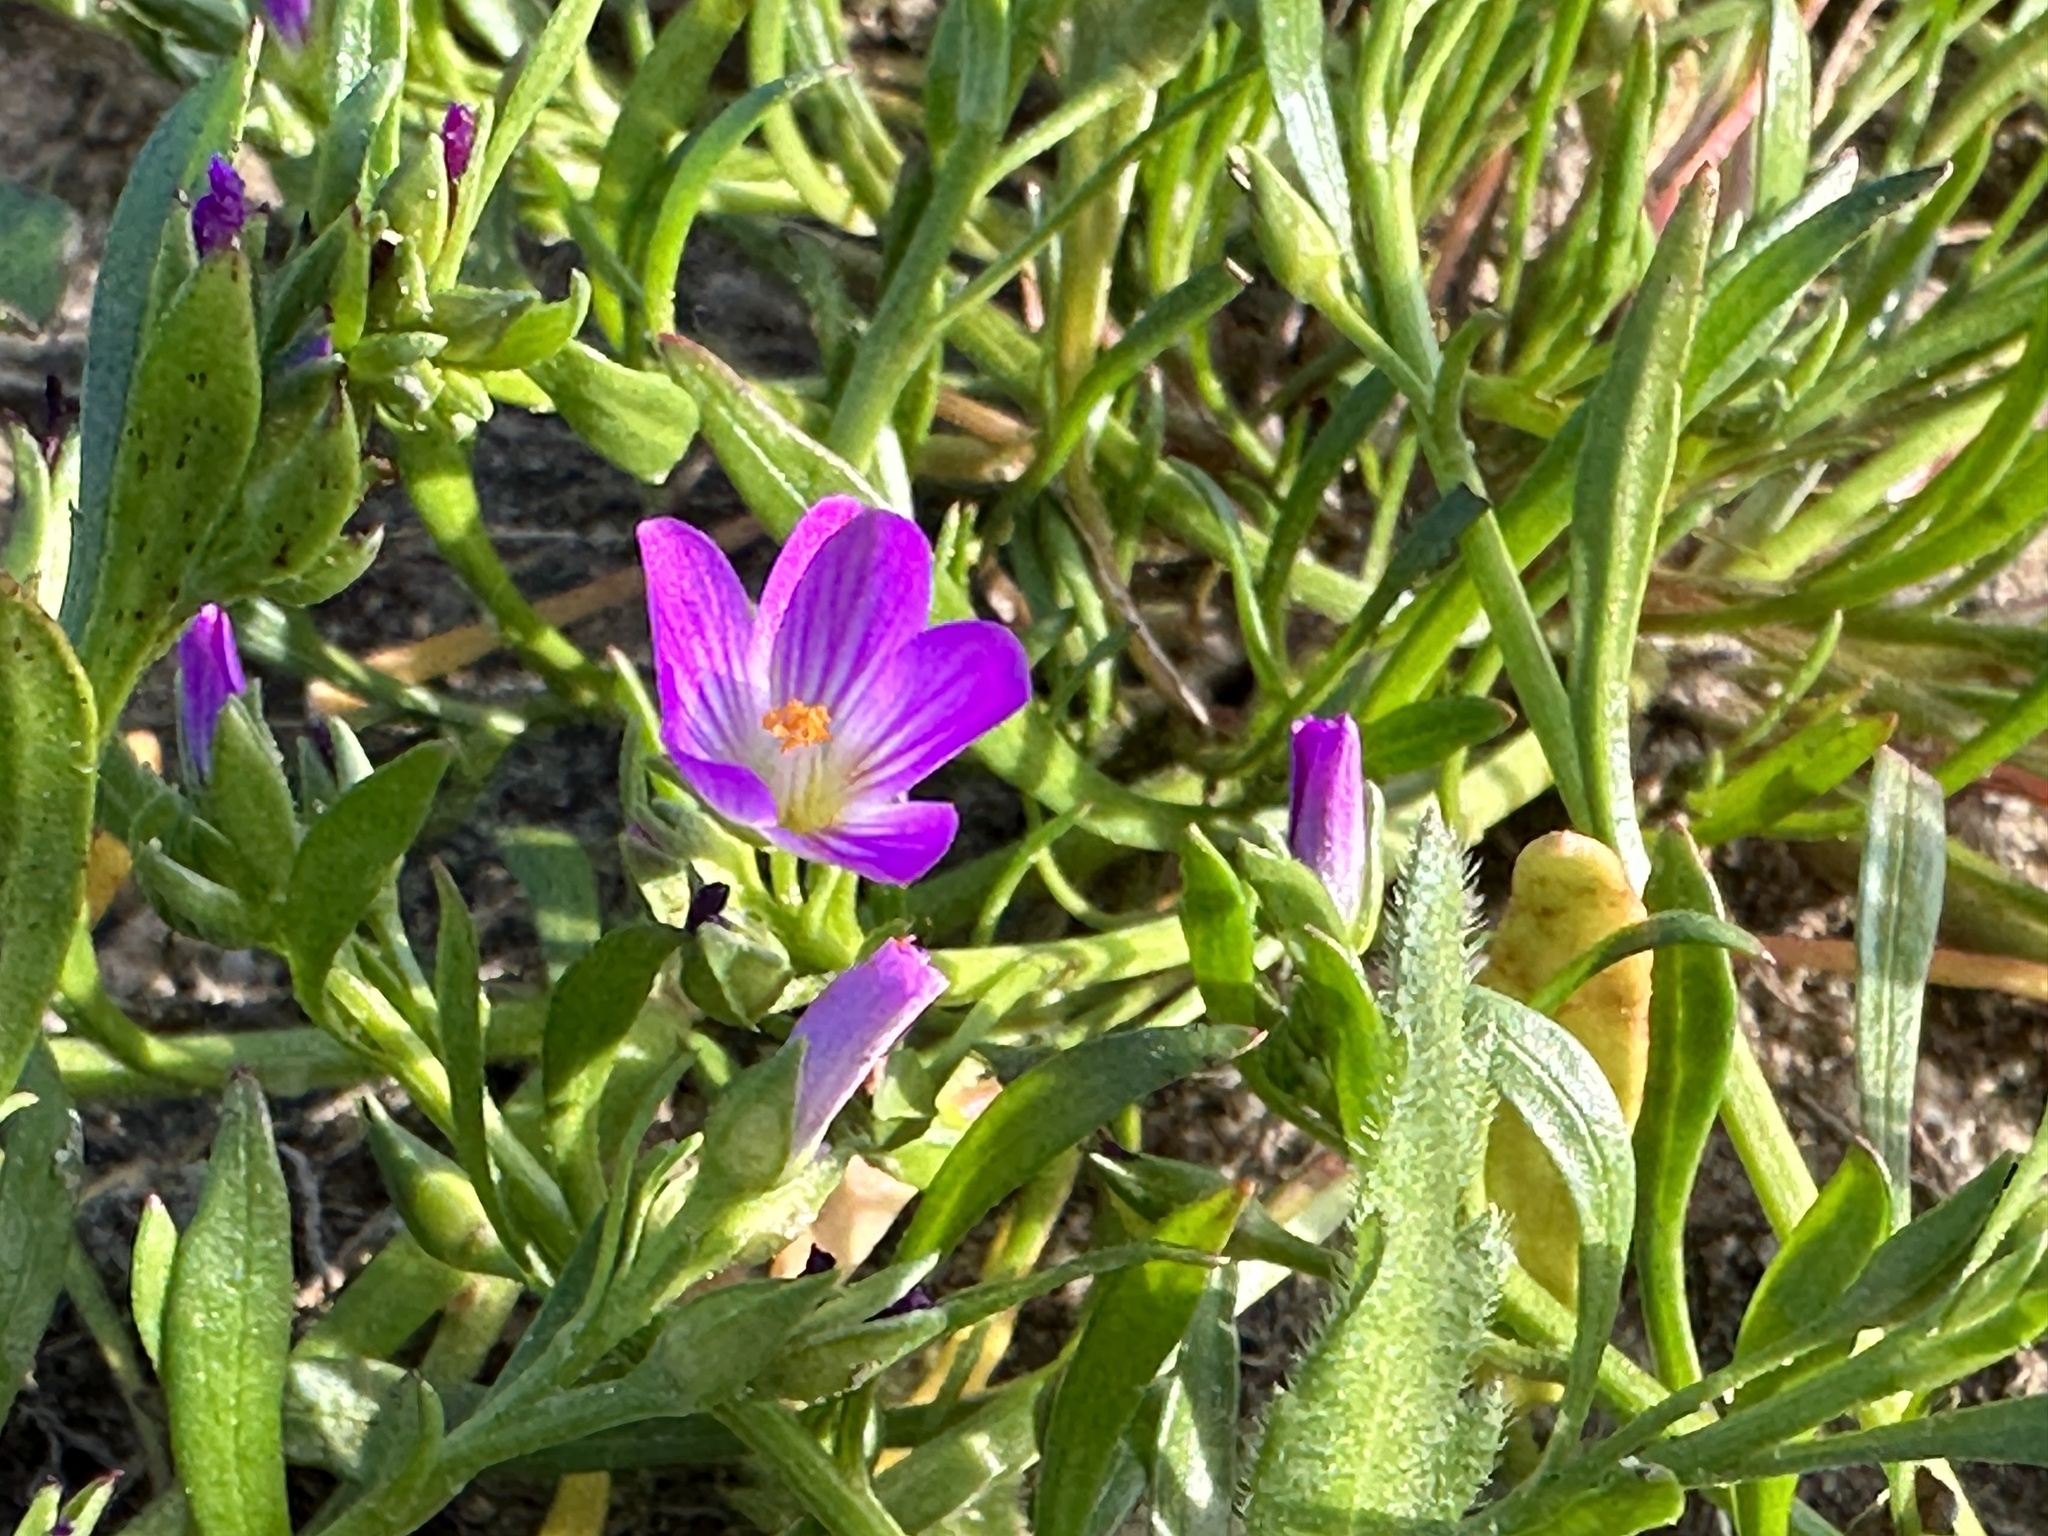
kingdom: Plantae
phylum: Tracheophyta
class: Magnoliopsida
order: Caryophyllales
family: Montiaceae
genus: Calandrinia
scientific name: Calandrinia menziesii
